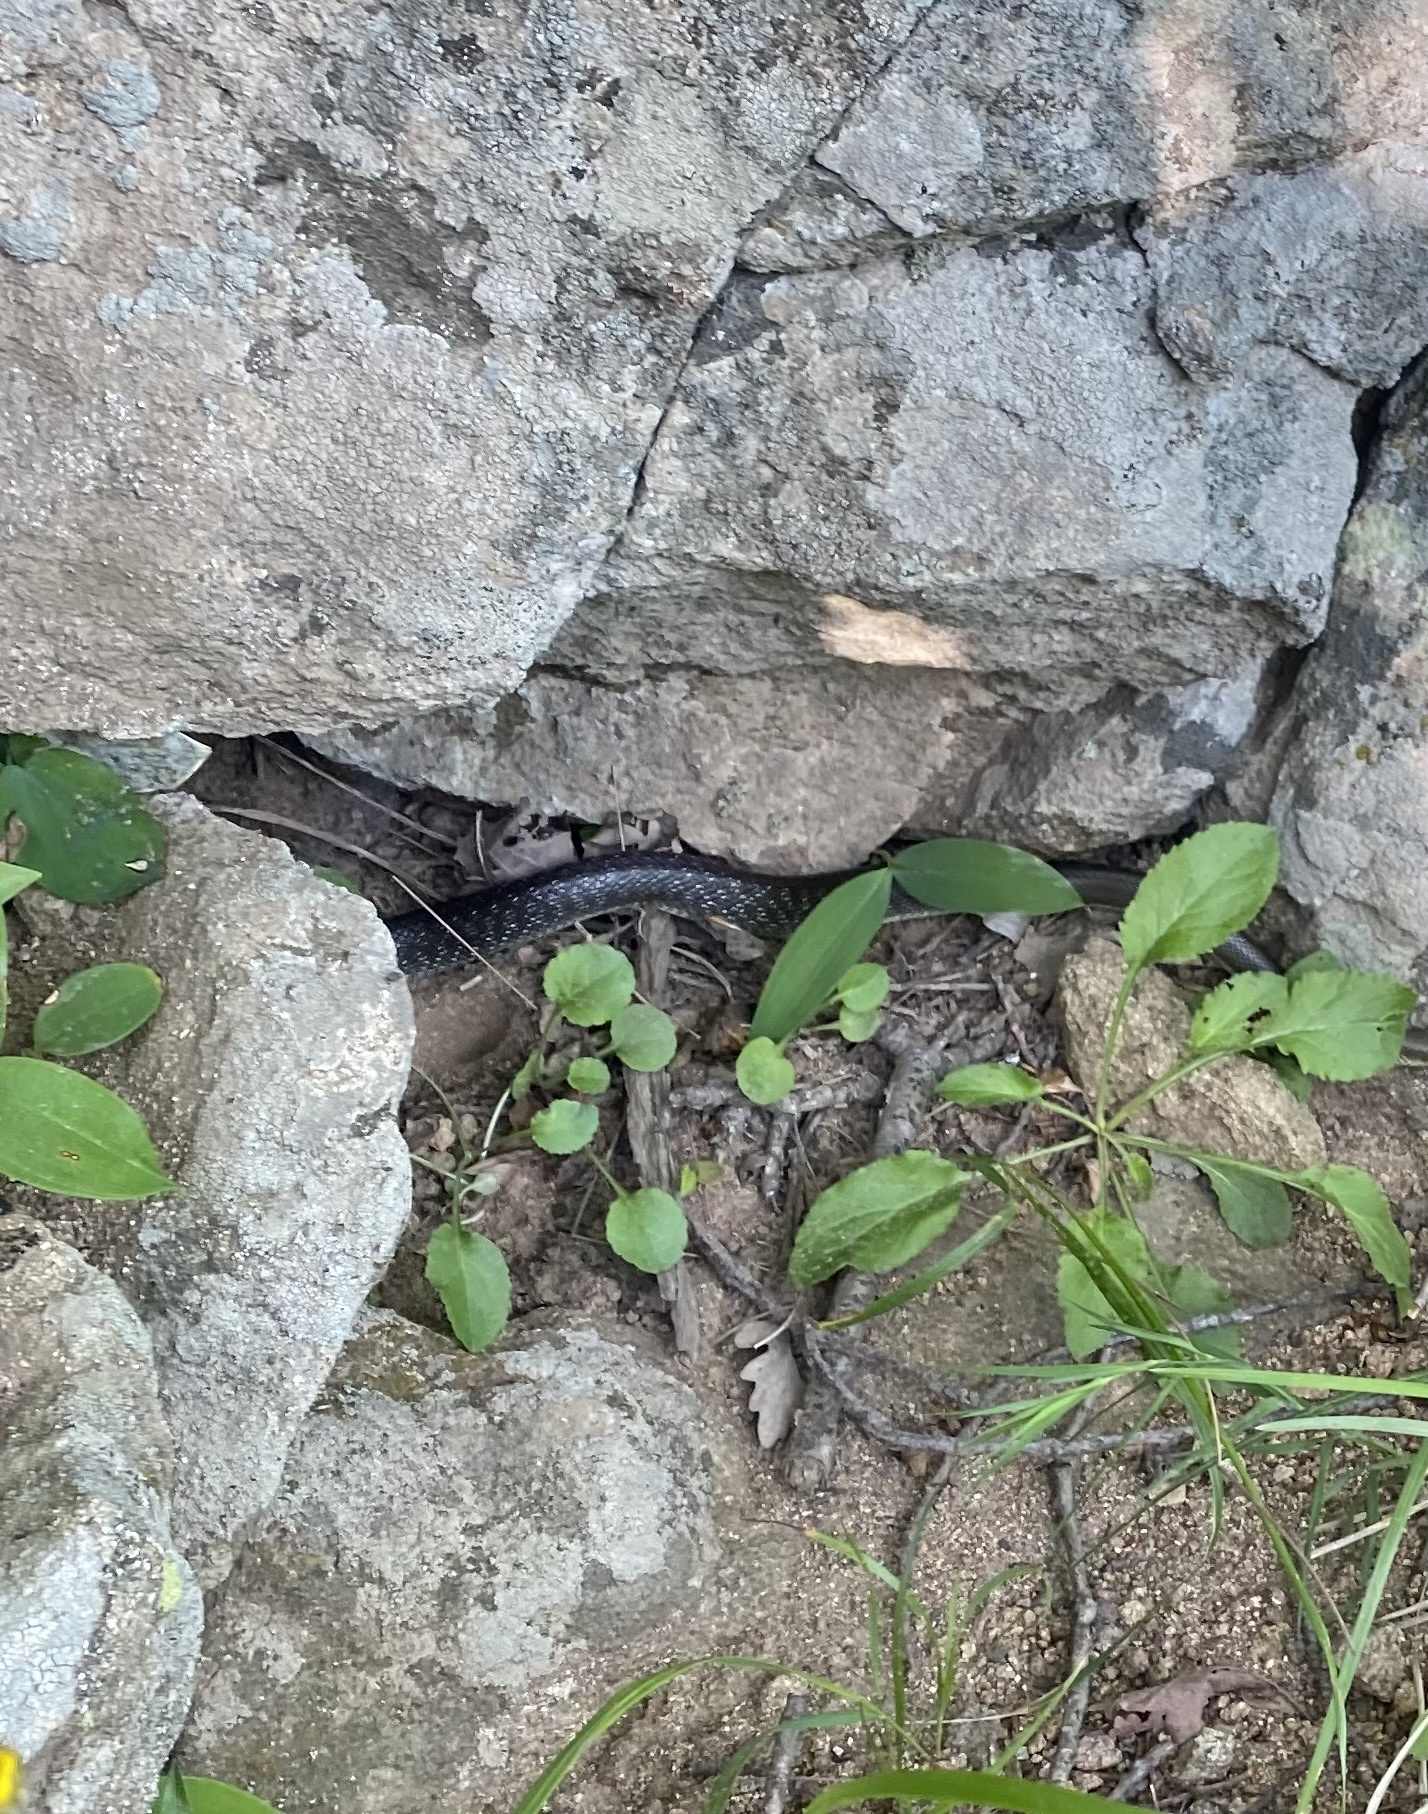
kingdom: Animalia
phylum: Chordata
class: Squamata
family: Colubridae
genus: Zamenis
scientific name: Zamenis longissimus
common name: Aesculapean snake
